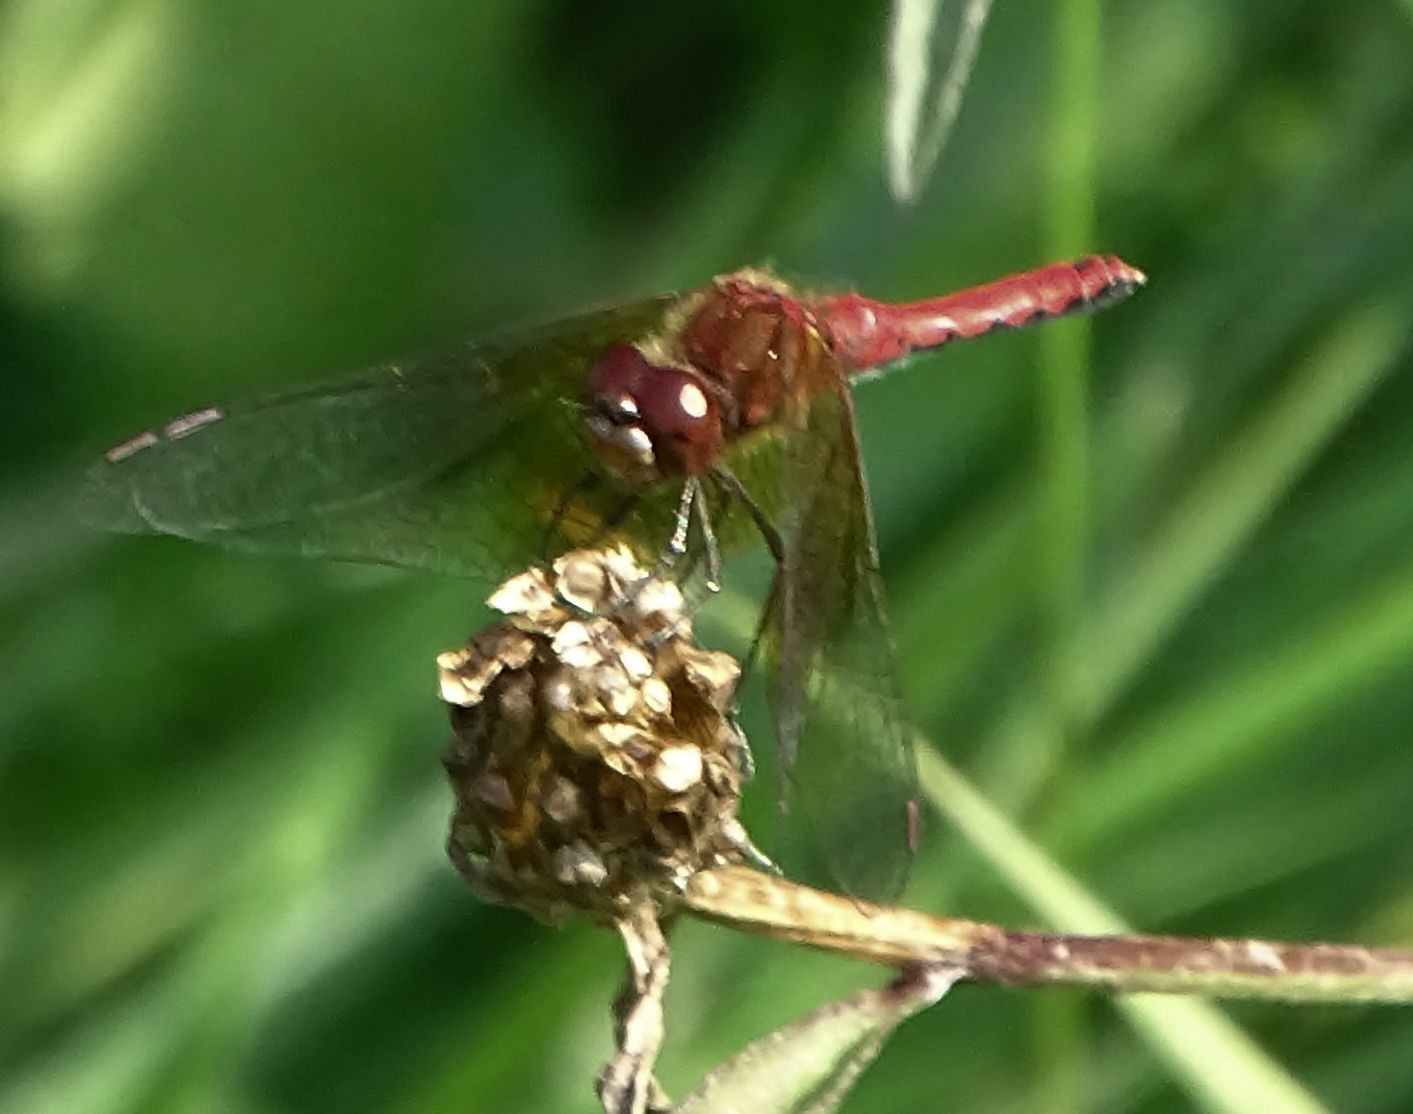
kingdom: Animalia
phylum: Arthropoda
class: Insecta
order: Odonata
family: Libellulidae
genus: Sympetrum
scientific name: Sympetrum semicinctum
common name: Band-winged meadowhawk
